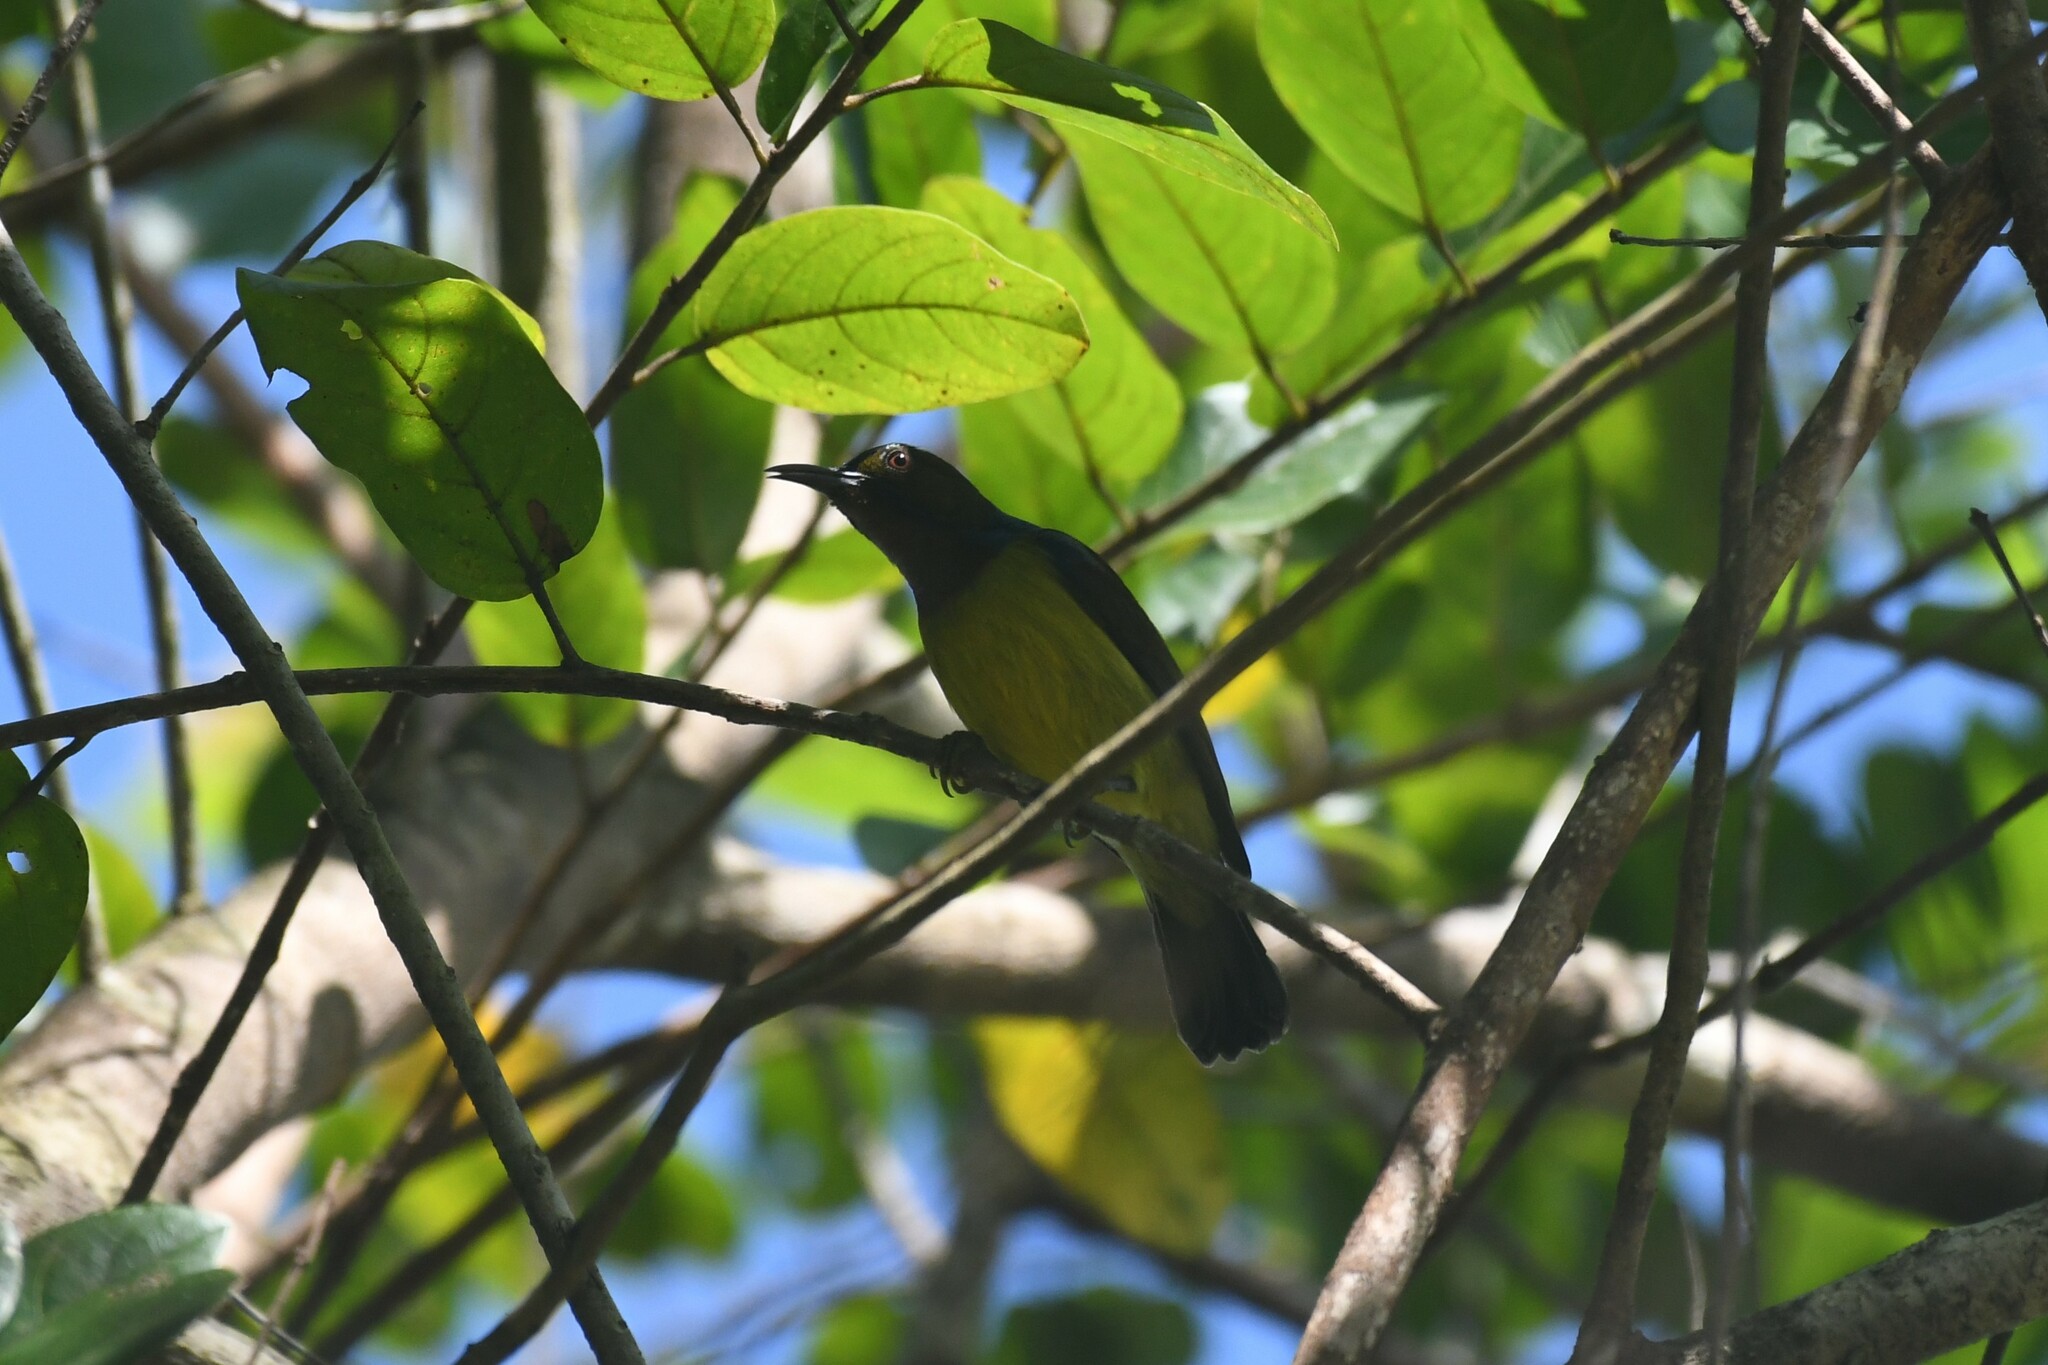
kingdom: Animalia
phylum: Chordata
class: Aves
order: Passeriformes
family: Nectariniidae
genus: Anthreptes
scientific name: Anthreptes malacensis
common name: Brown-throated sunbird
